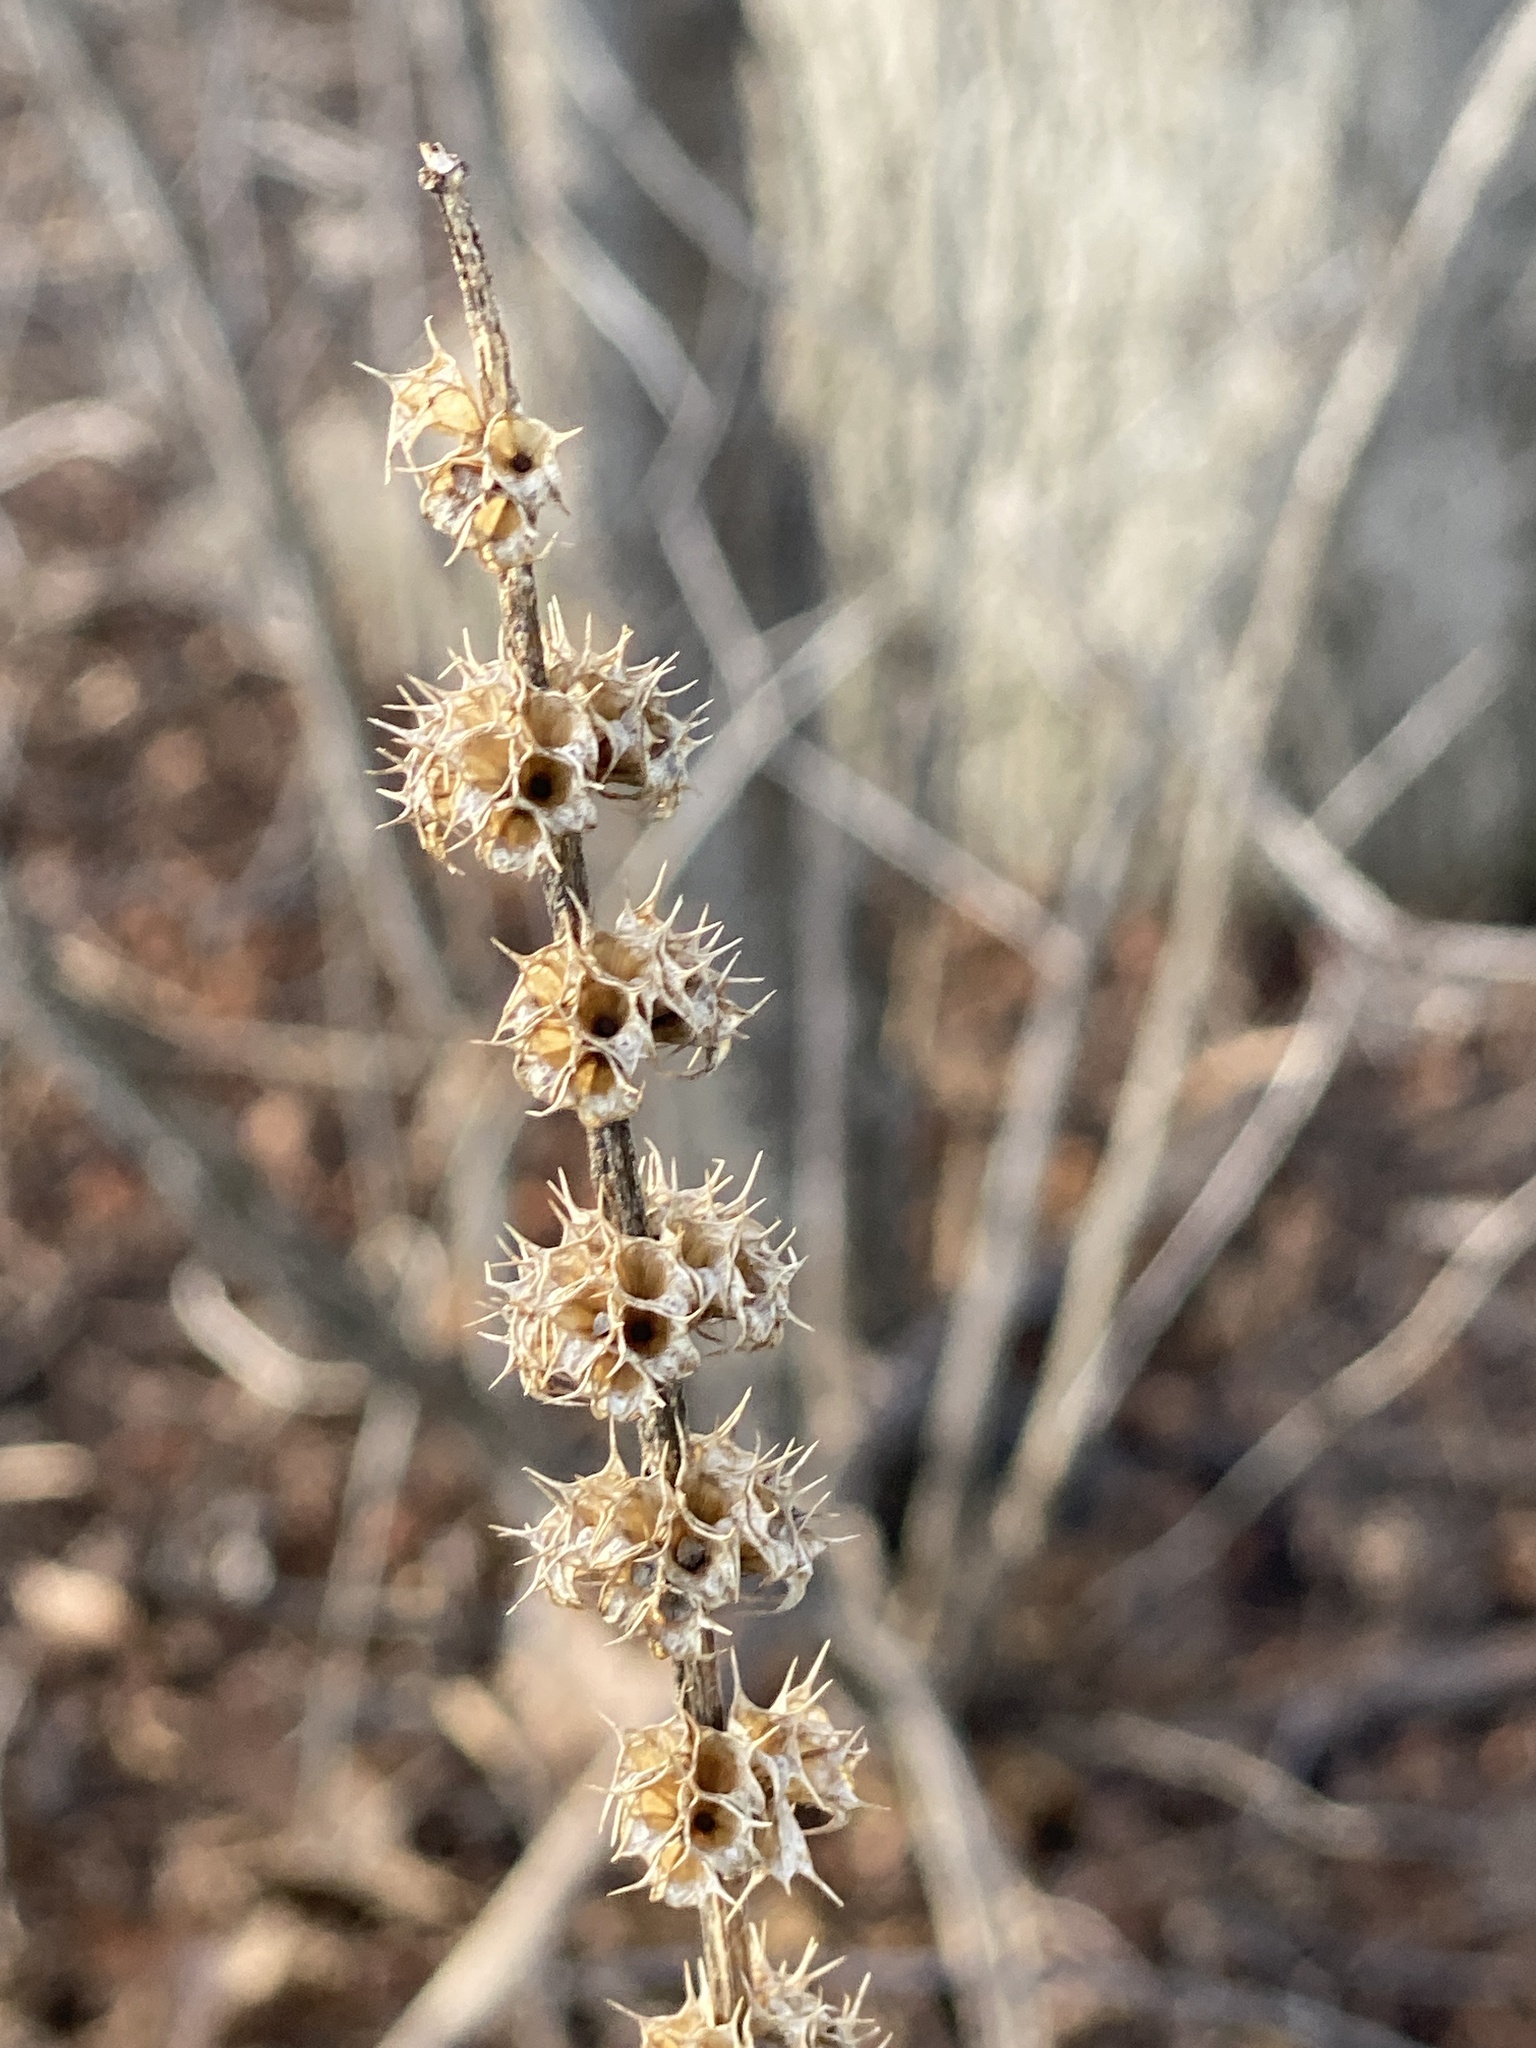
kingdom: Plantae
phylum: Tracheophyta
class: Magnoliopsida
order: Lamiales
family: Lamiaceae
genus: Leonurus
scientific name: Leonurus cardiaca
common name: Motherwort
